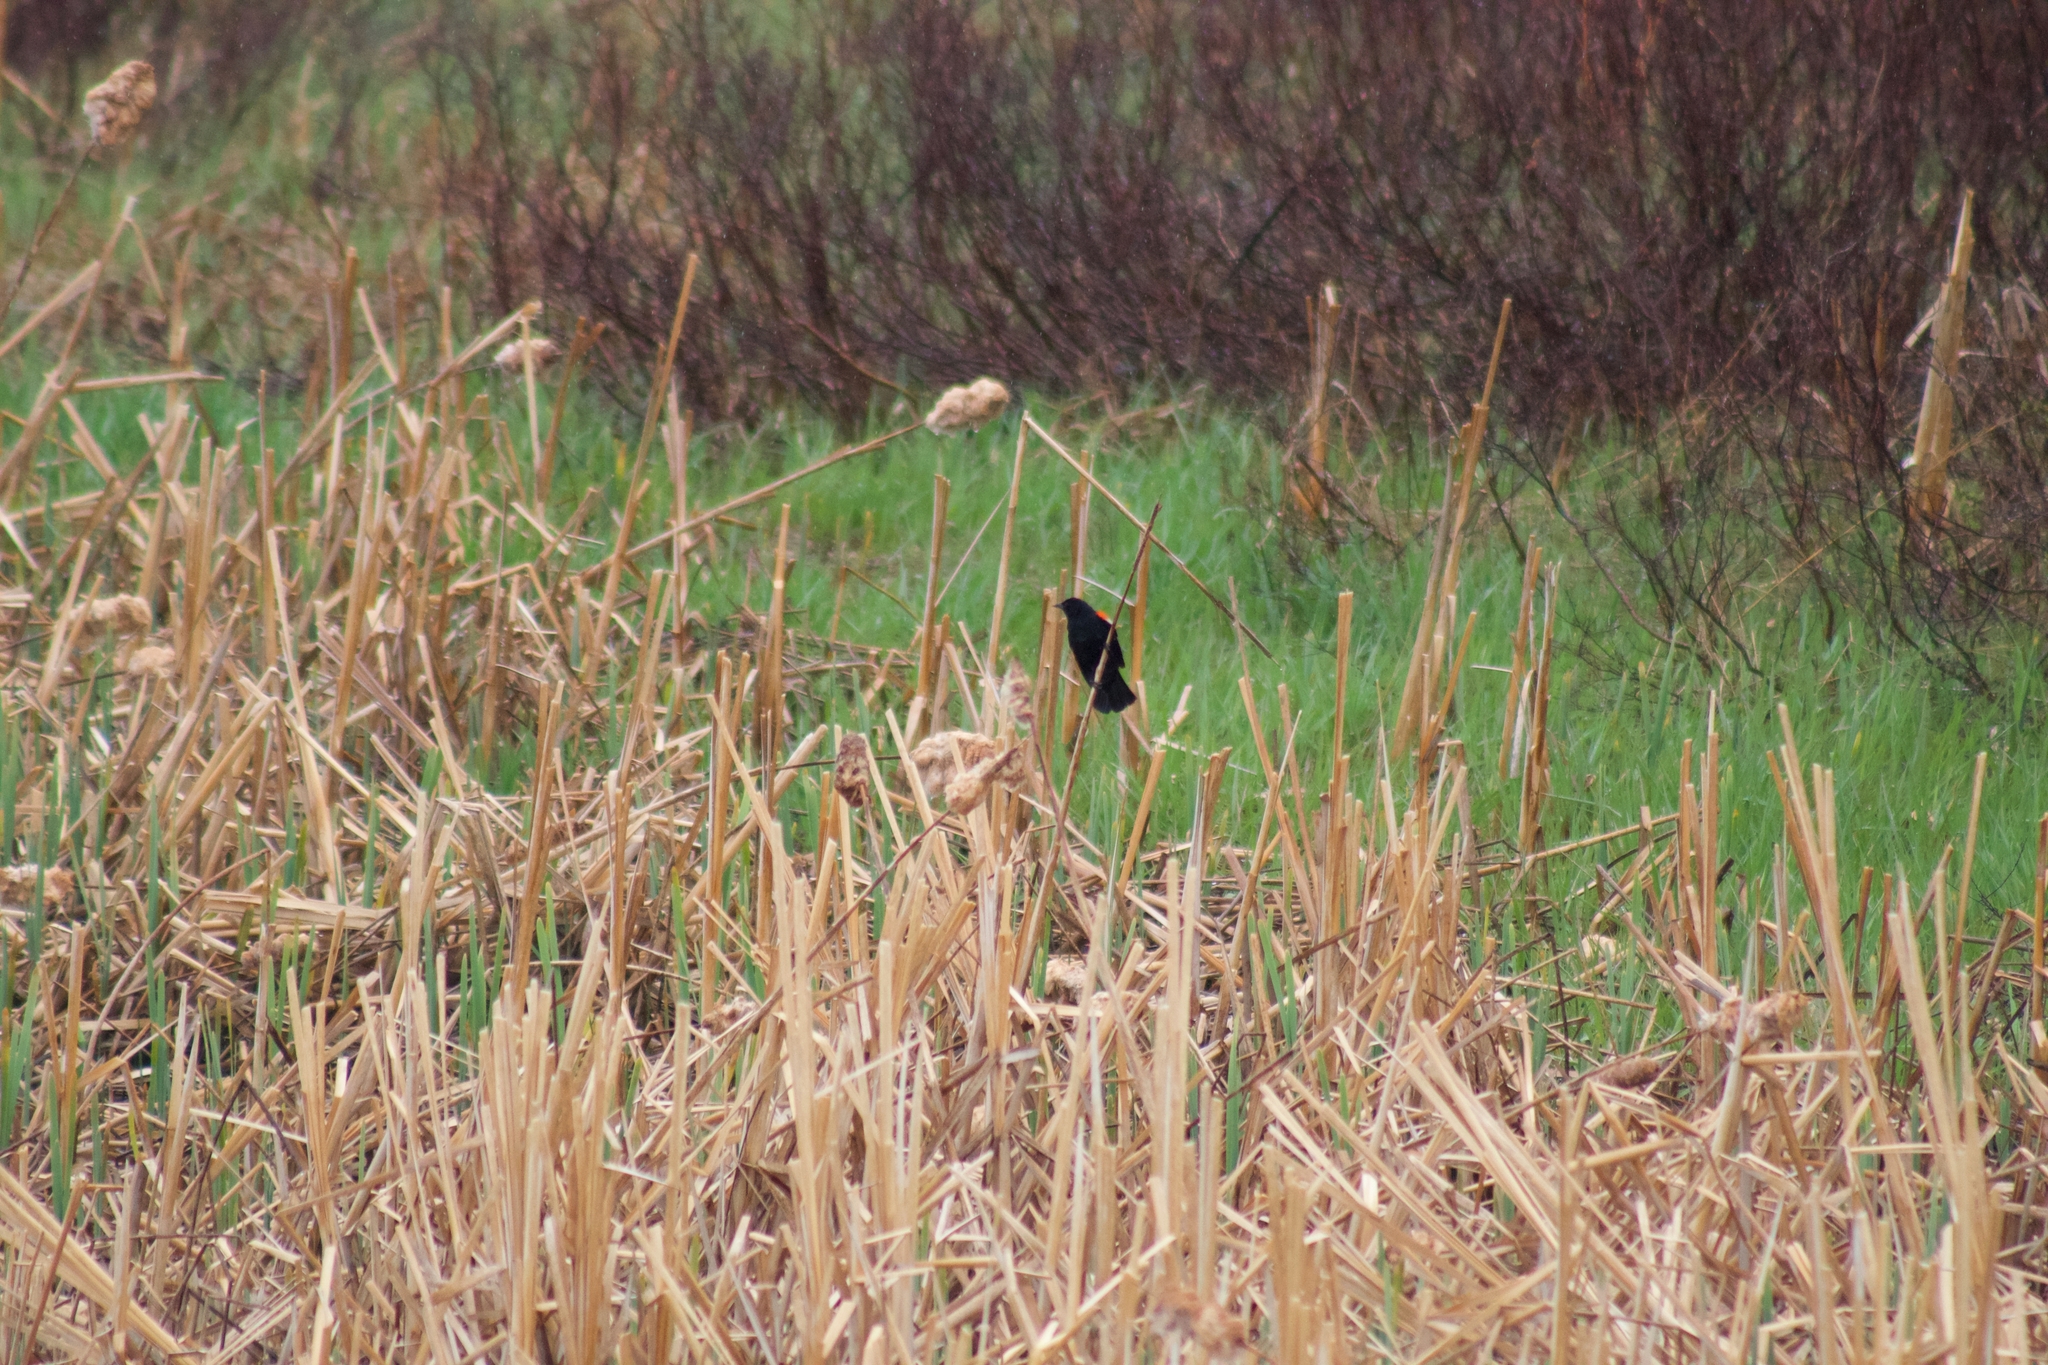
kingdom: Animalia
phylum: Chordata
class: Aves
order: Passeriformes
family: Icteridae
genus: Agelaius
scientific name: Agelaius phoeniceus
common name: Red-winged blackbird
